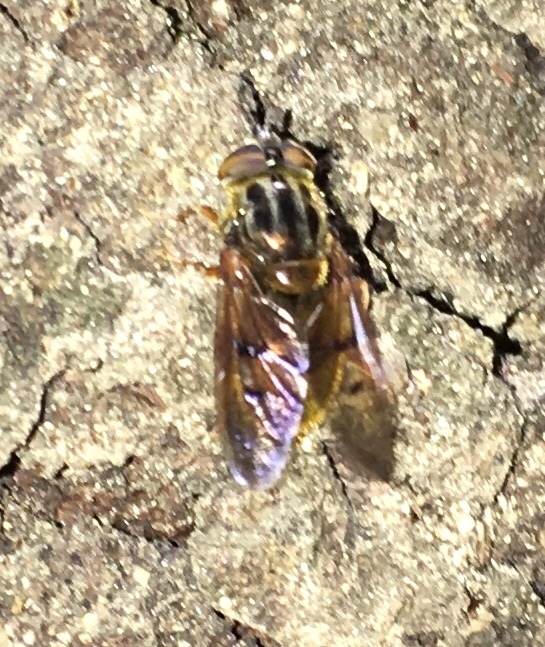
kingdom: Animalia
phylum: Arthropoda
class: Insecta
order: Diptera
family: Syrphidae
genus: Ferdinandea
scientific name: Ferdinandea croesus
